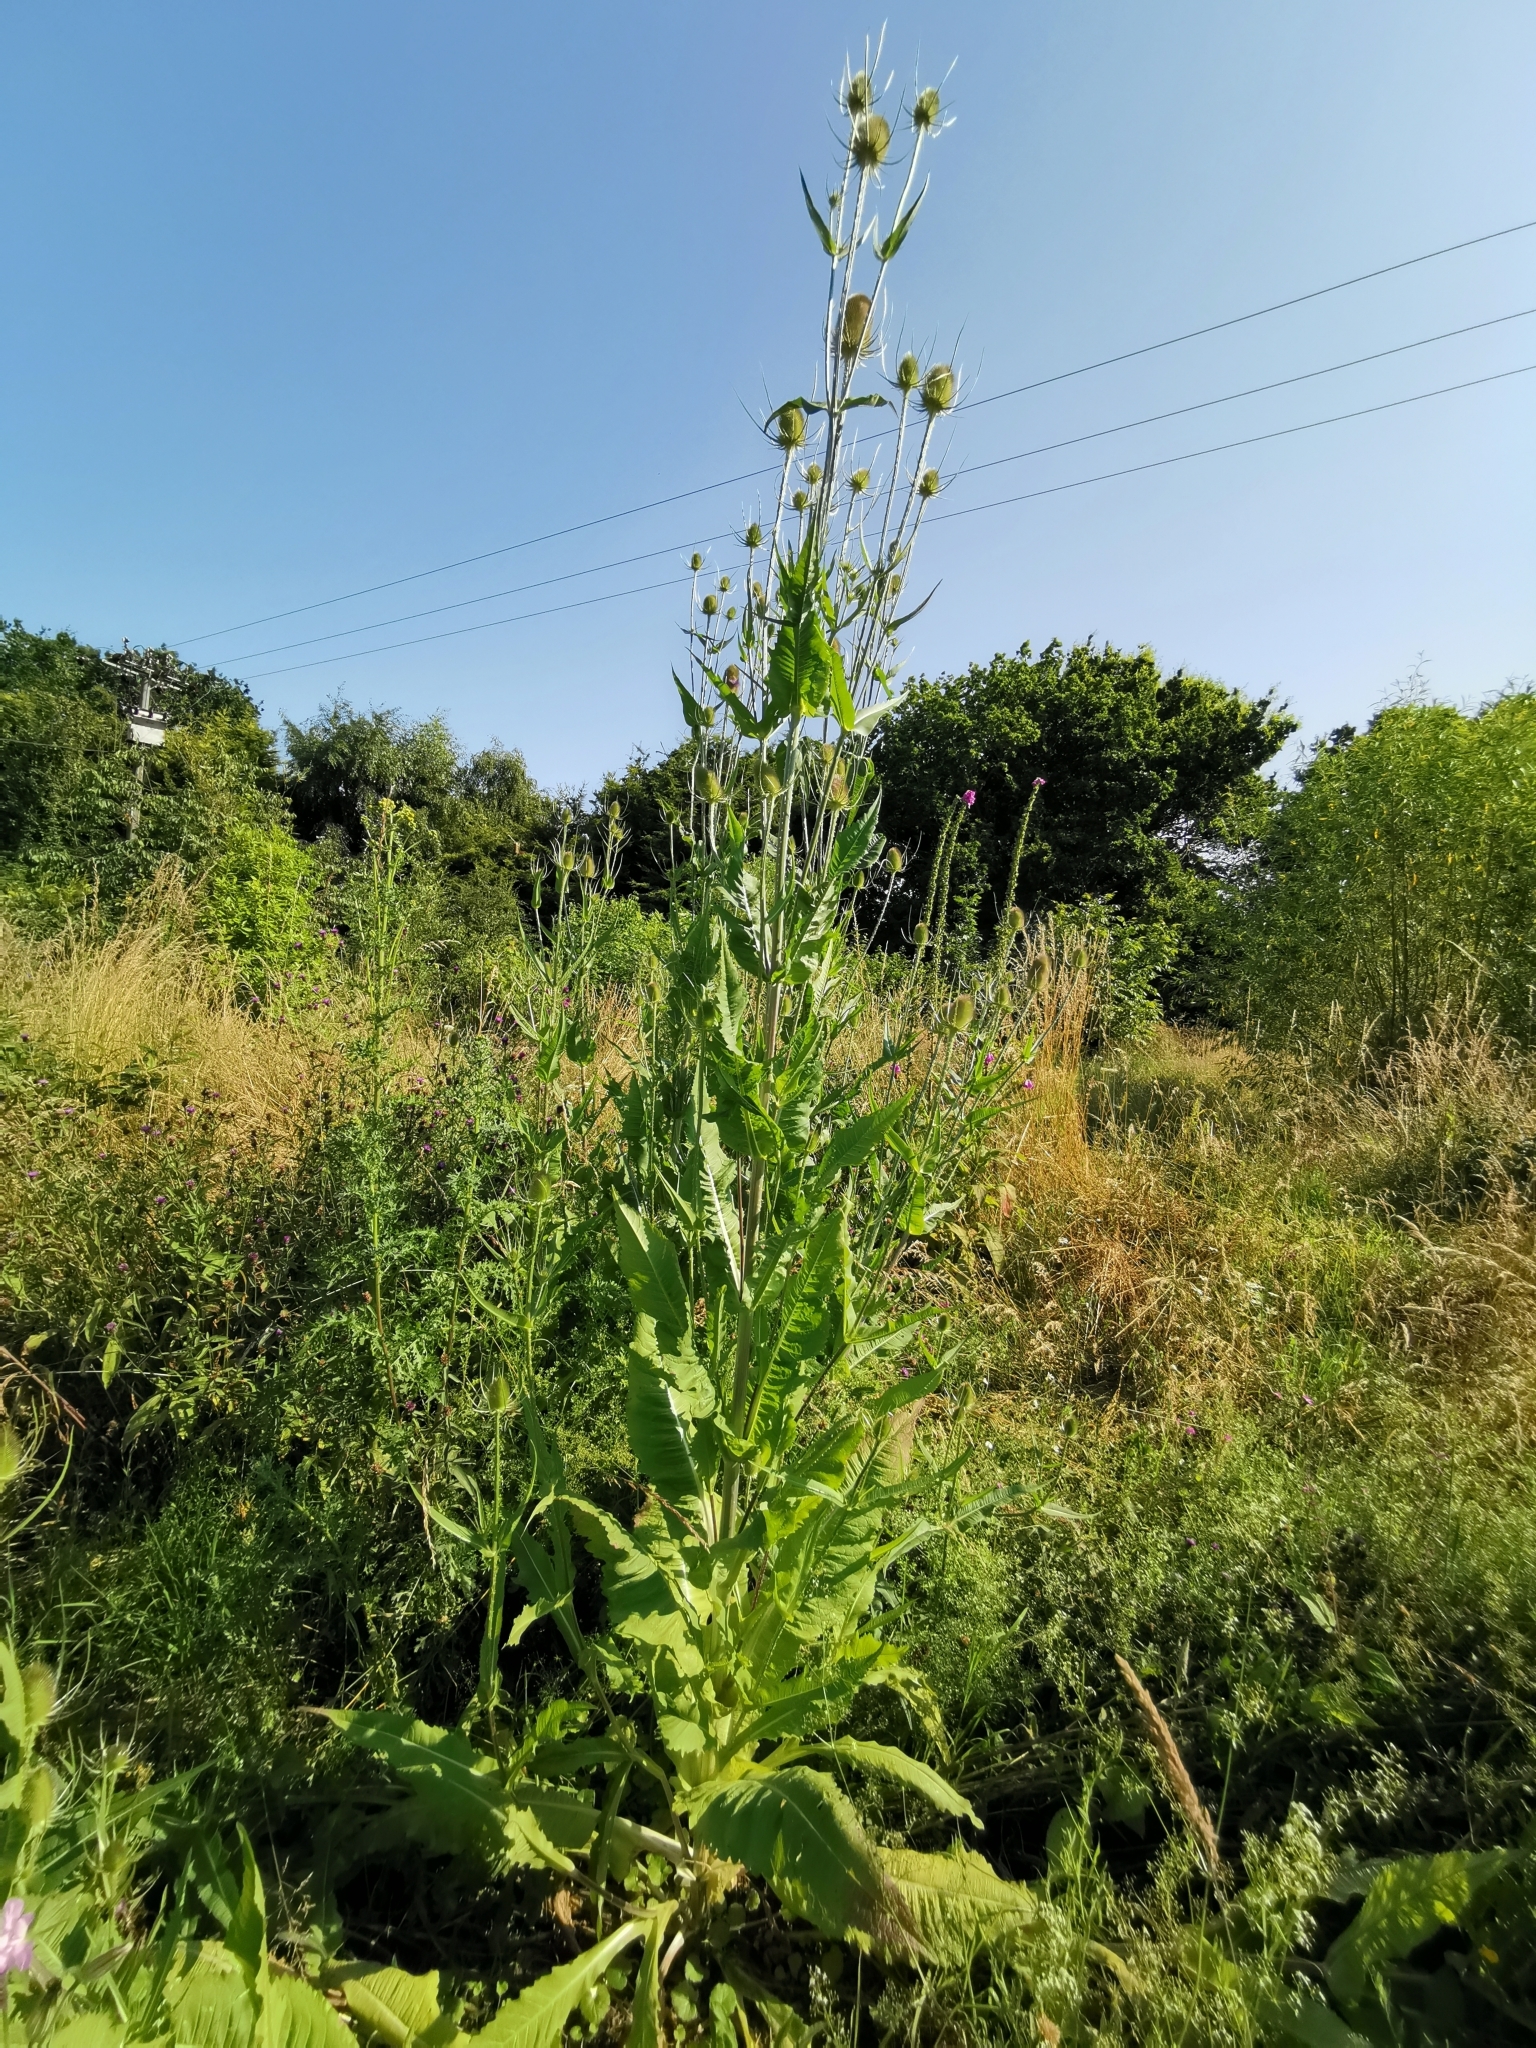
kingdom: Plantae
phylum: Tracheophyta
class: Magnoliopsida
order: Dipsacales
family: Caprifoliaceae
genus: Dipsacus
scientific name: Dipsacus fullonum
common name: Teasel
